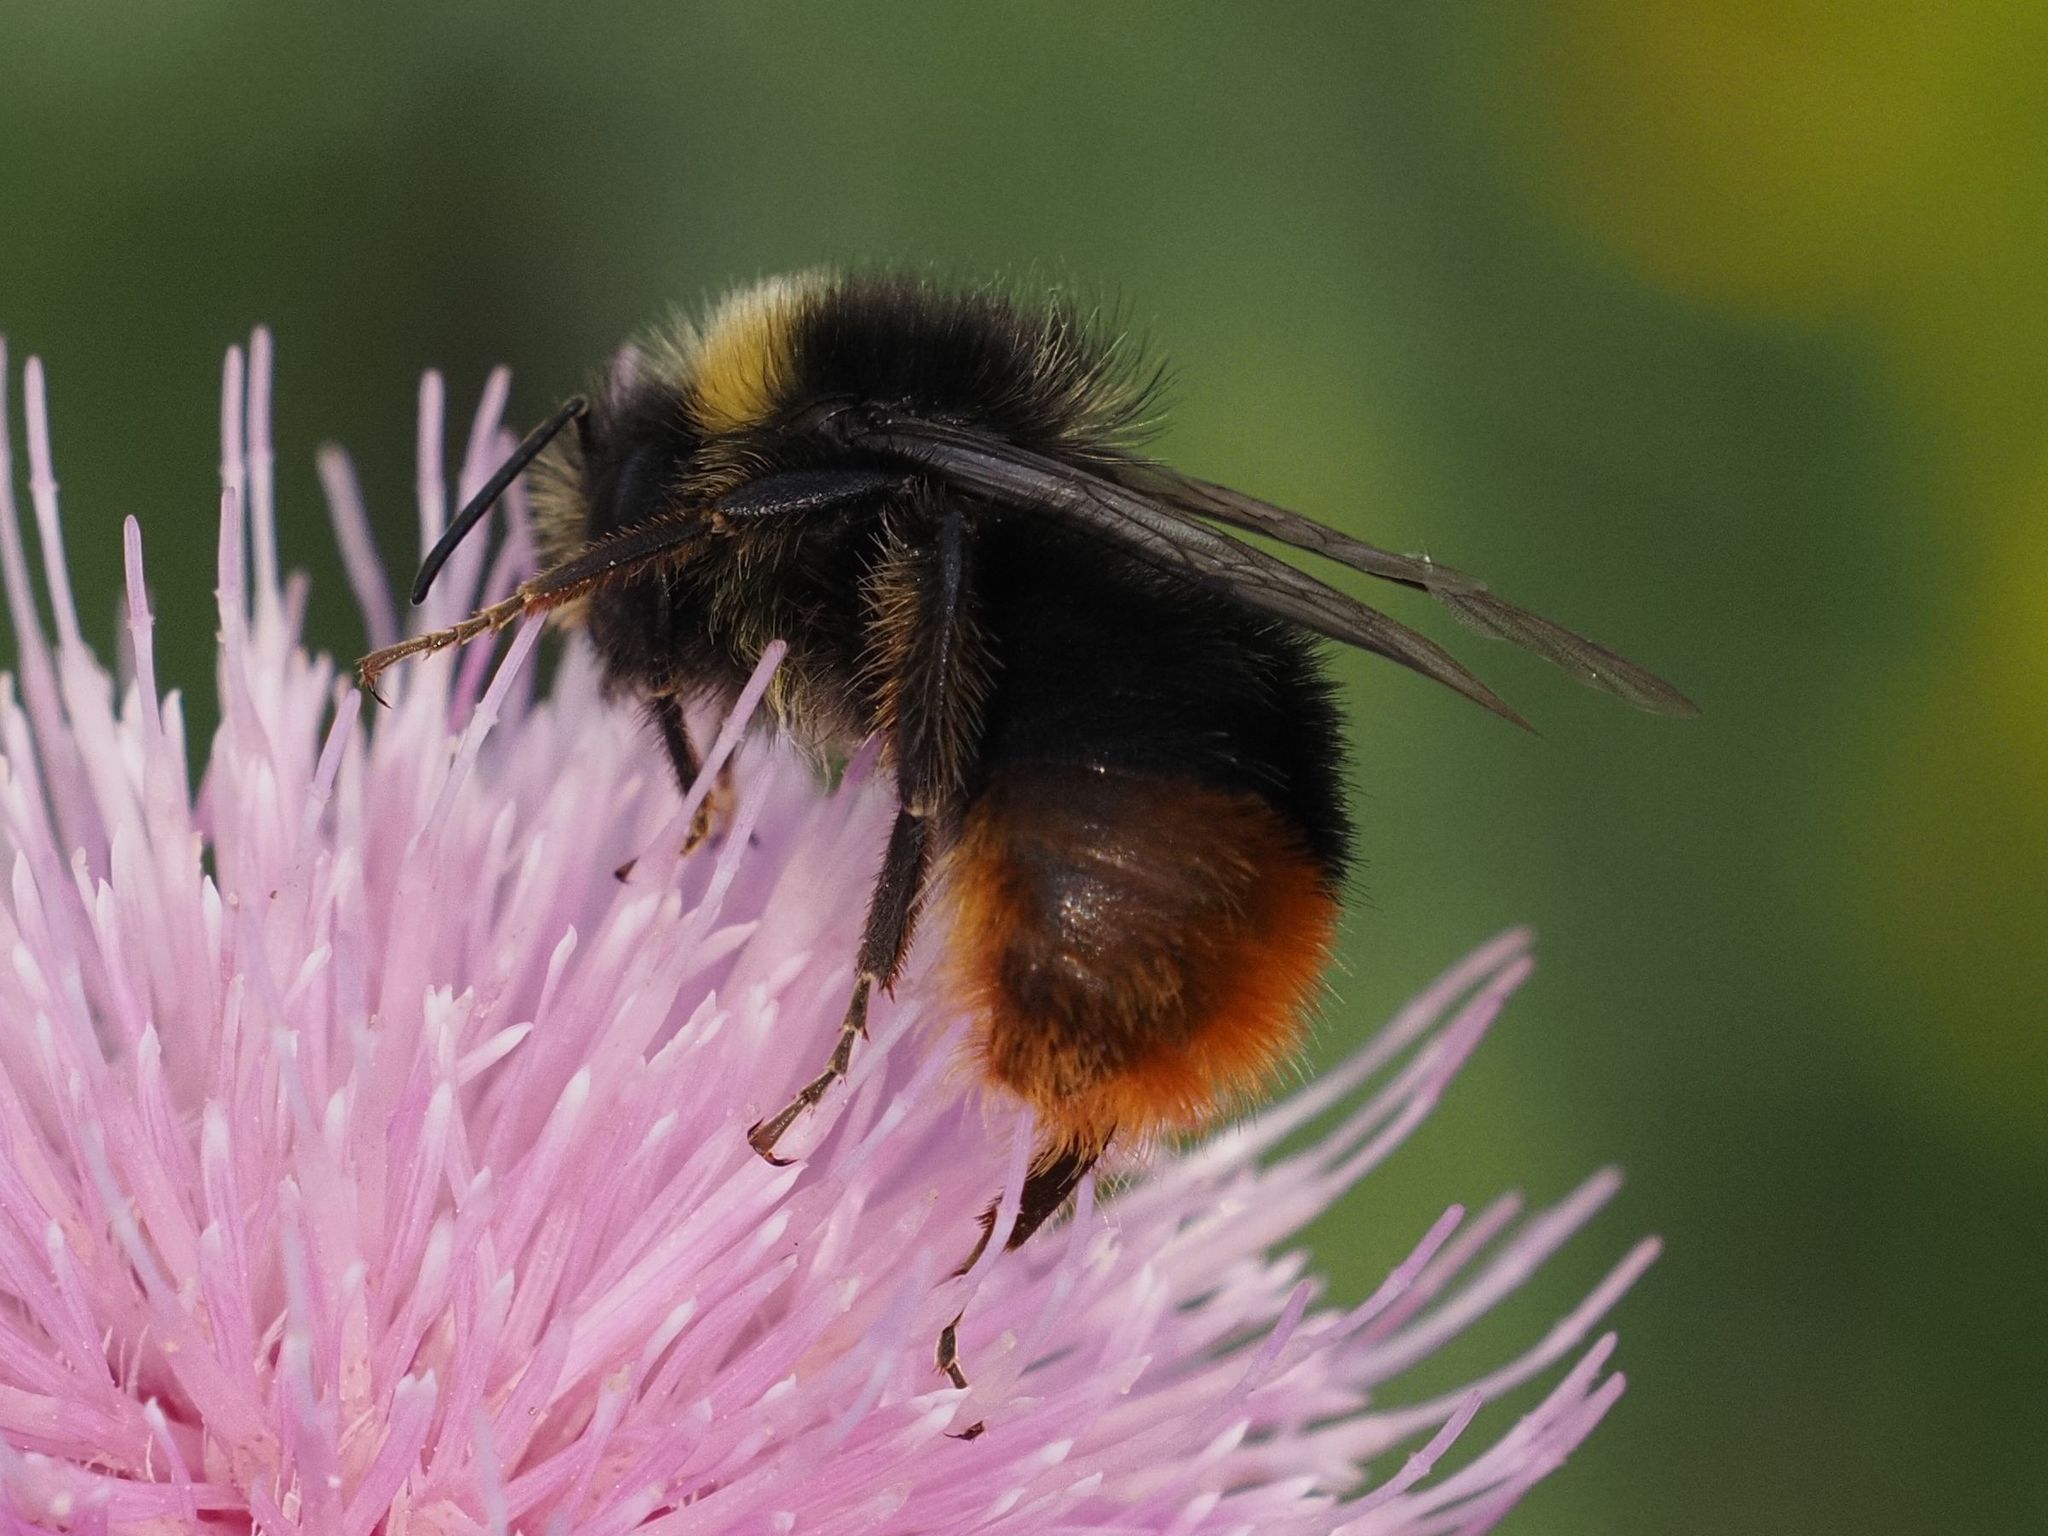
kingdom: Animalia
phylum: Arthropoda
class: Insecta
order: Hymenoptera
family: Apidae
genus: Bombus
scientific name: Bombus lapidarius
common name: Large red-tailed humble-bee
